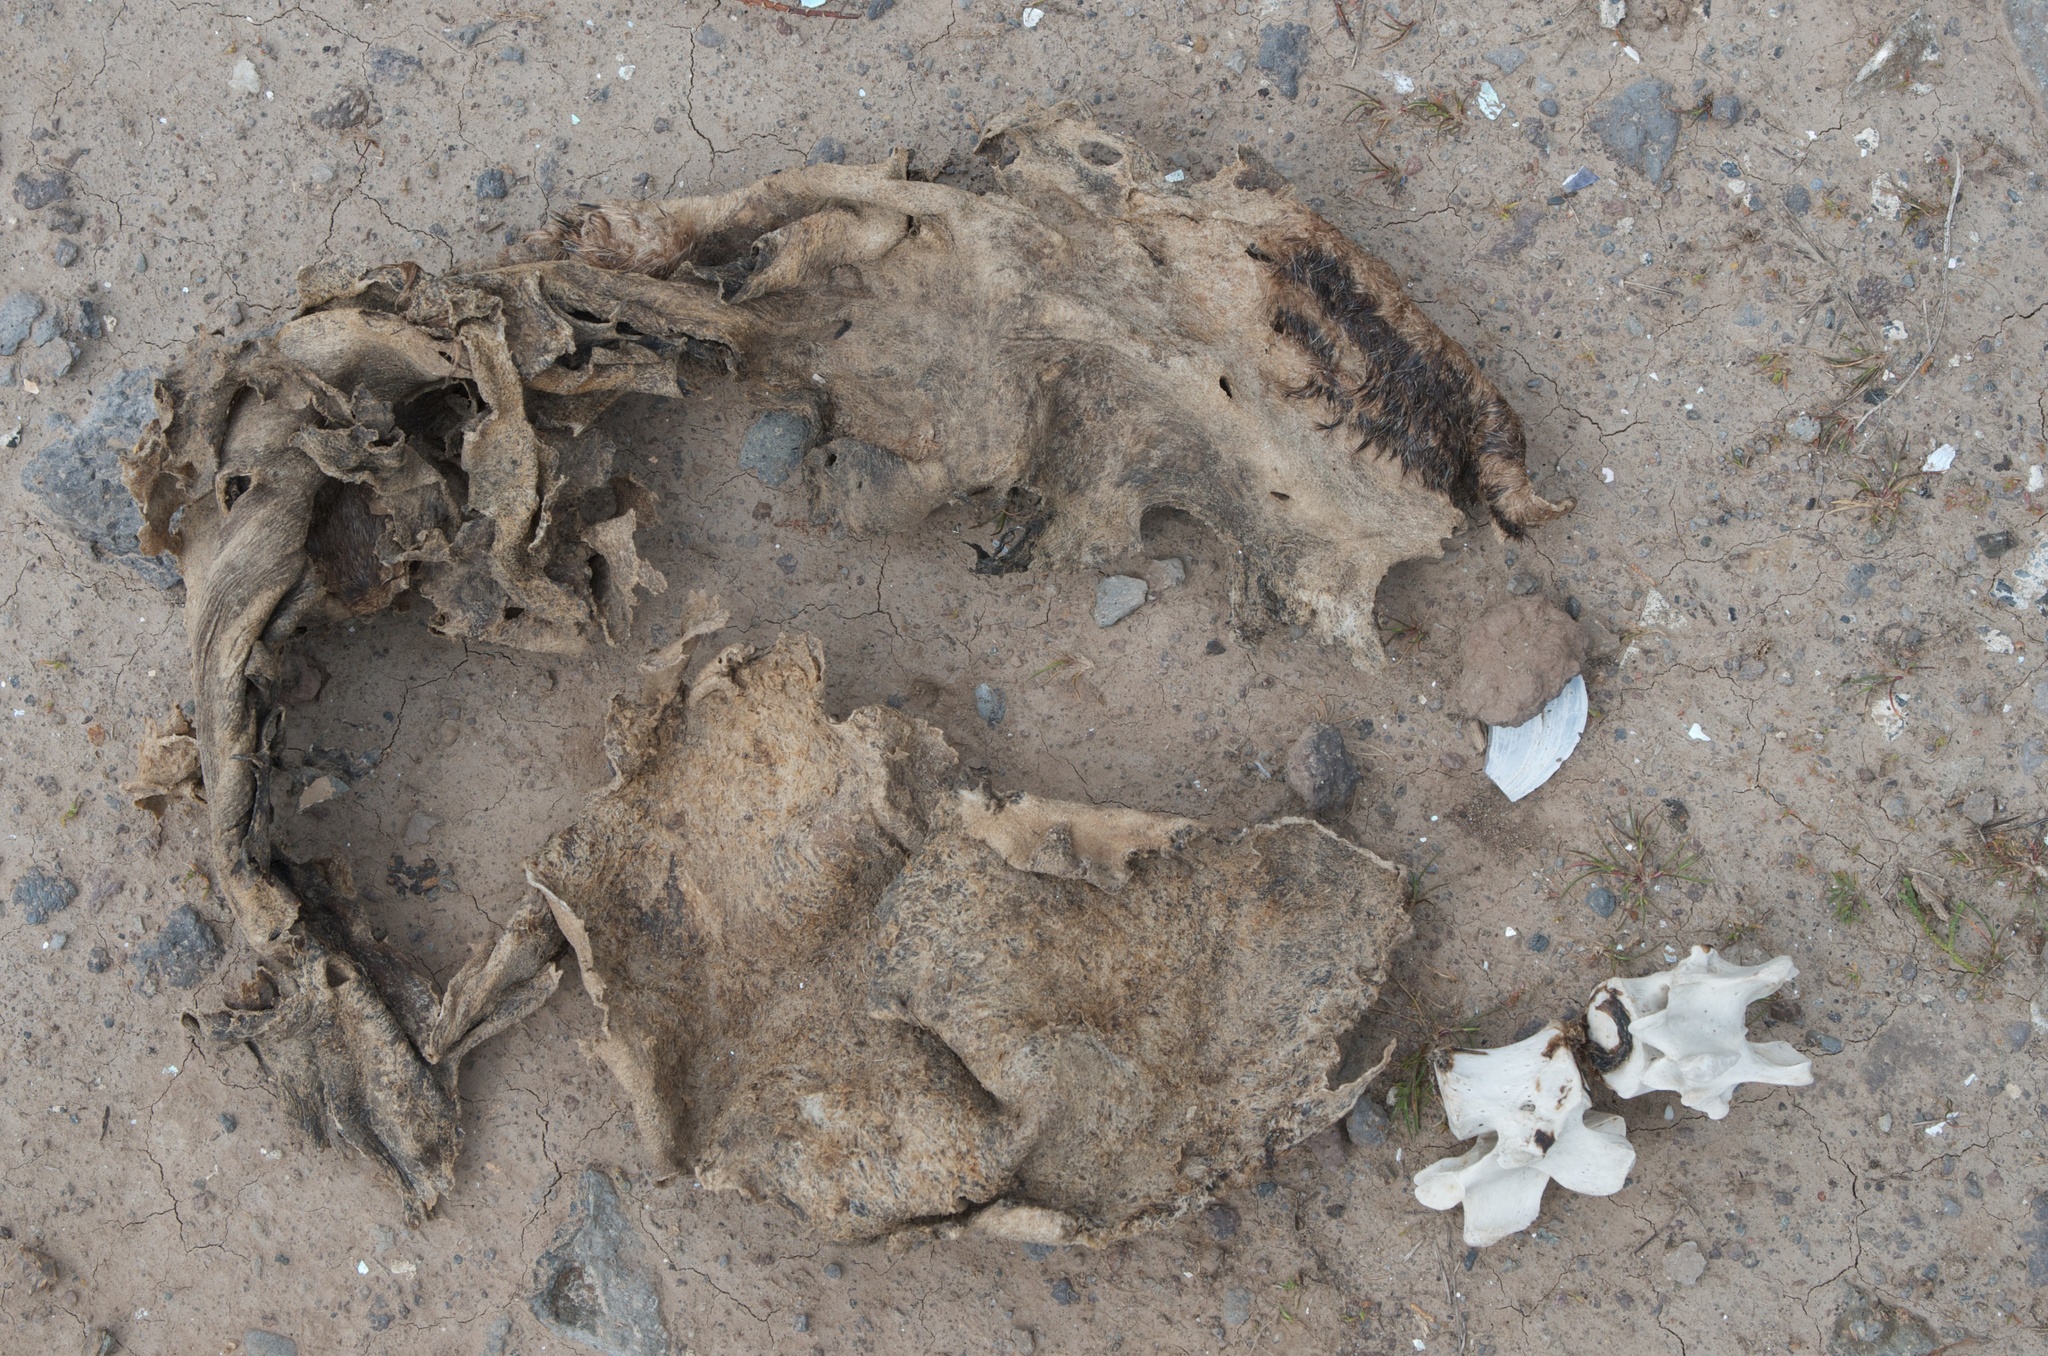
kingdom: Animalia
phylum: Chordata
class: Mammalia
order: Carnivora
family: Otariidae
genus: Arctocephalus
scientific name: Arctocephalus forsteri
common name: New zealand fur seal
